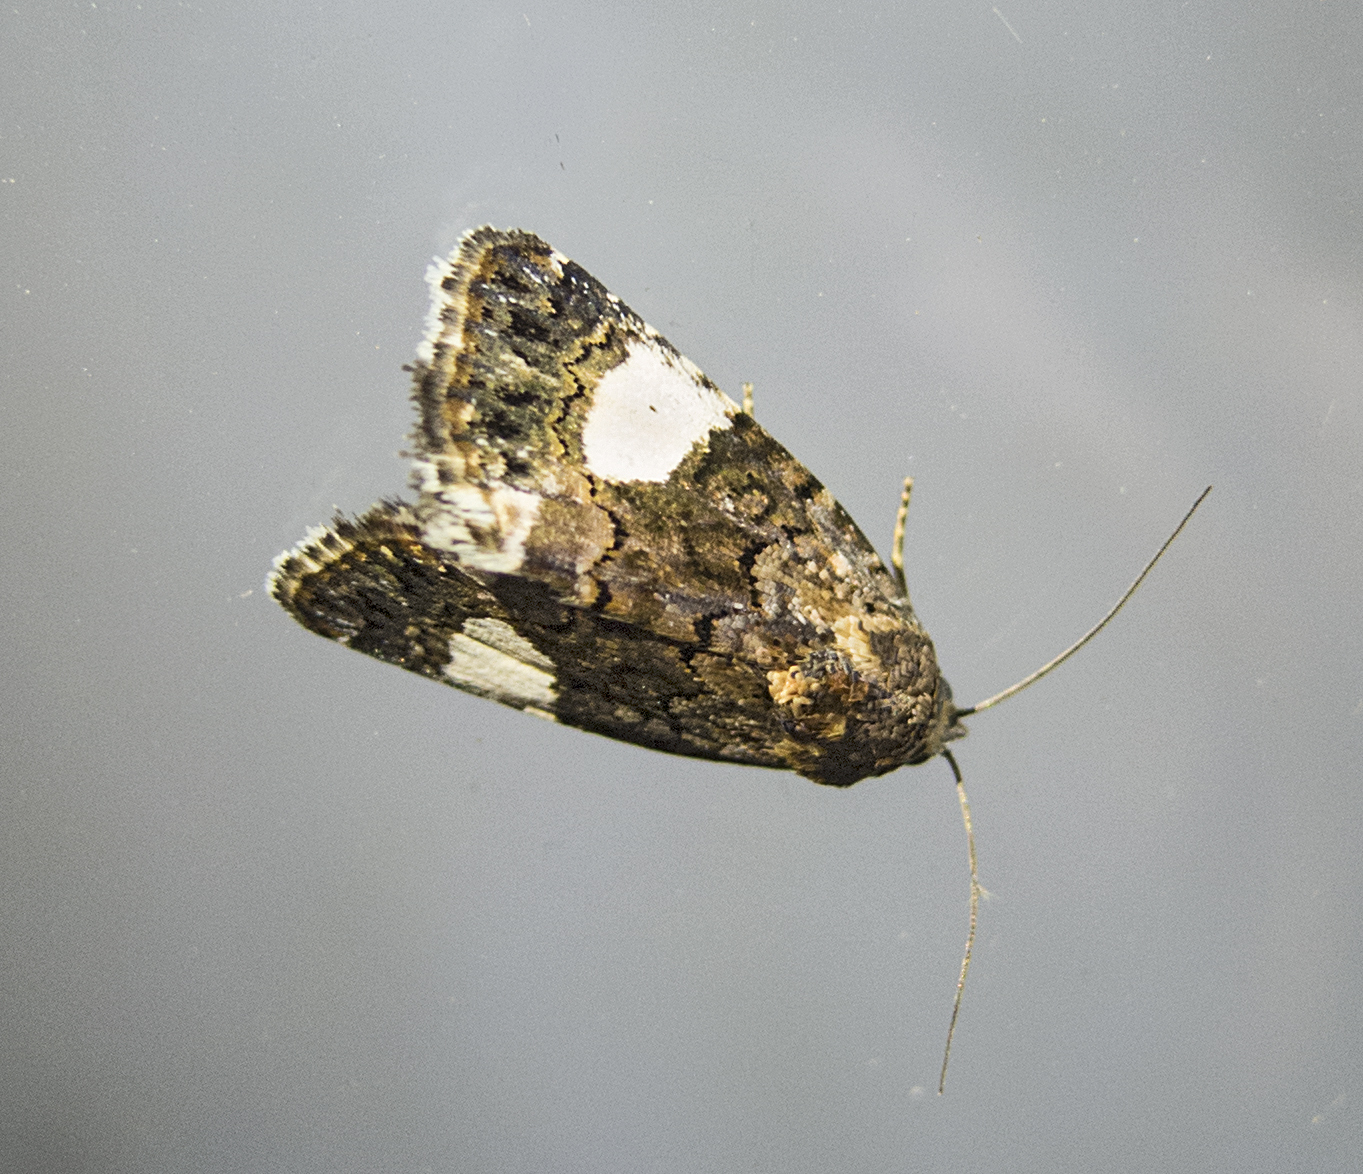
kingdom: Animalia
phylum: Arthropoda
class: Insecta
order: Lepidoptera
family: Erebidae
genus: Tyta
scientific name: Tyta luctuosa
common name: Four-spotted
